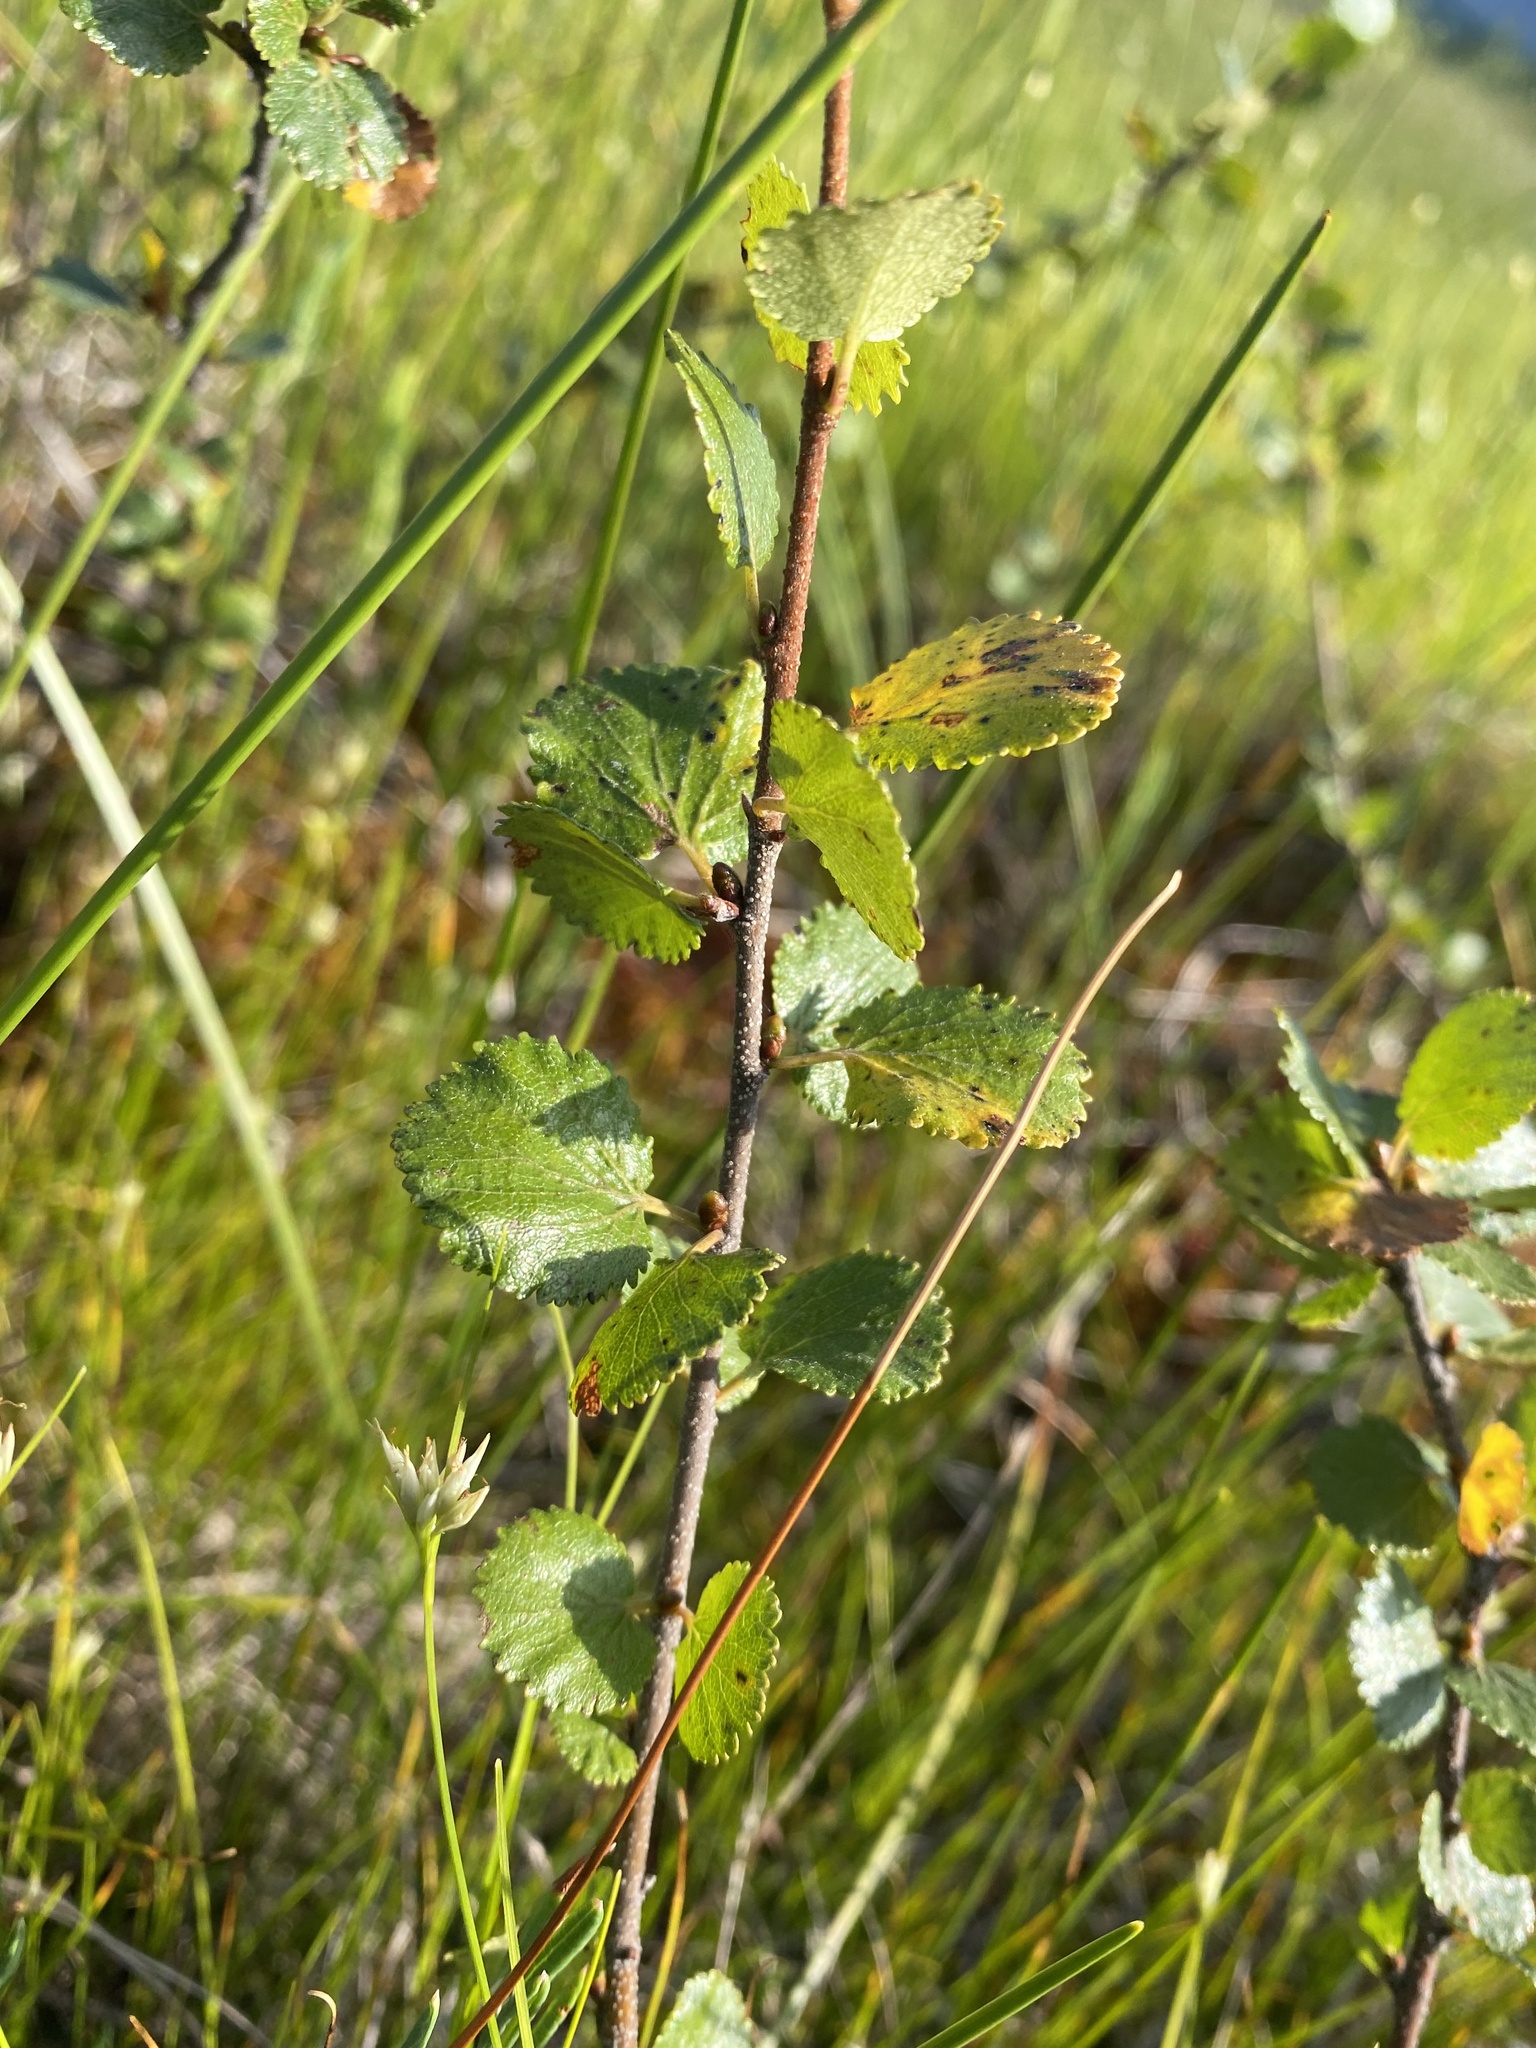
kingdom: Plantae
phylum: Tracheophyta
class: Magnoliopsida
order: Fagales
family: Betulaceae
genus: Betula
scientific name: Betula glandulosa
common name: Dwarf birch
